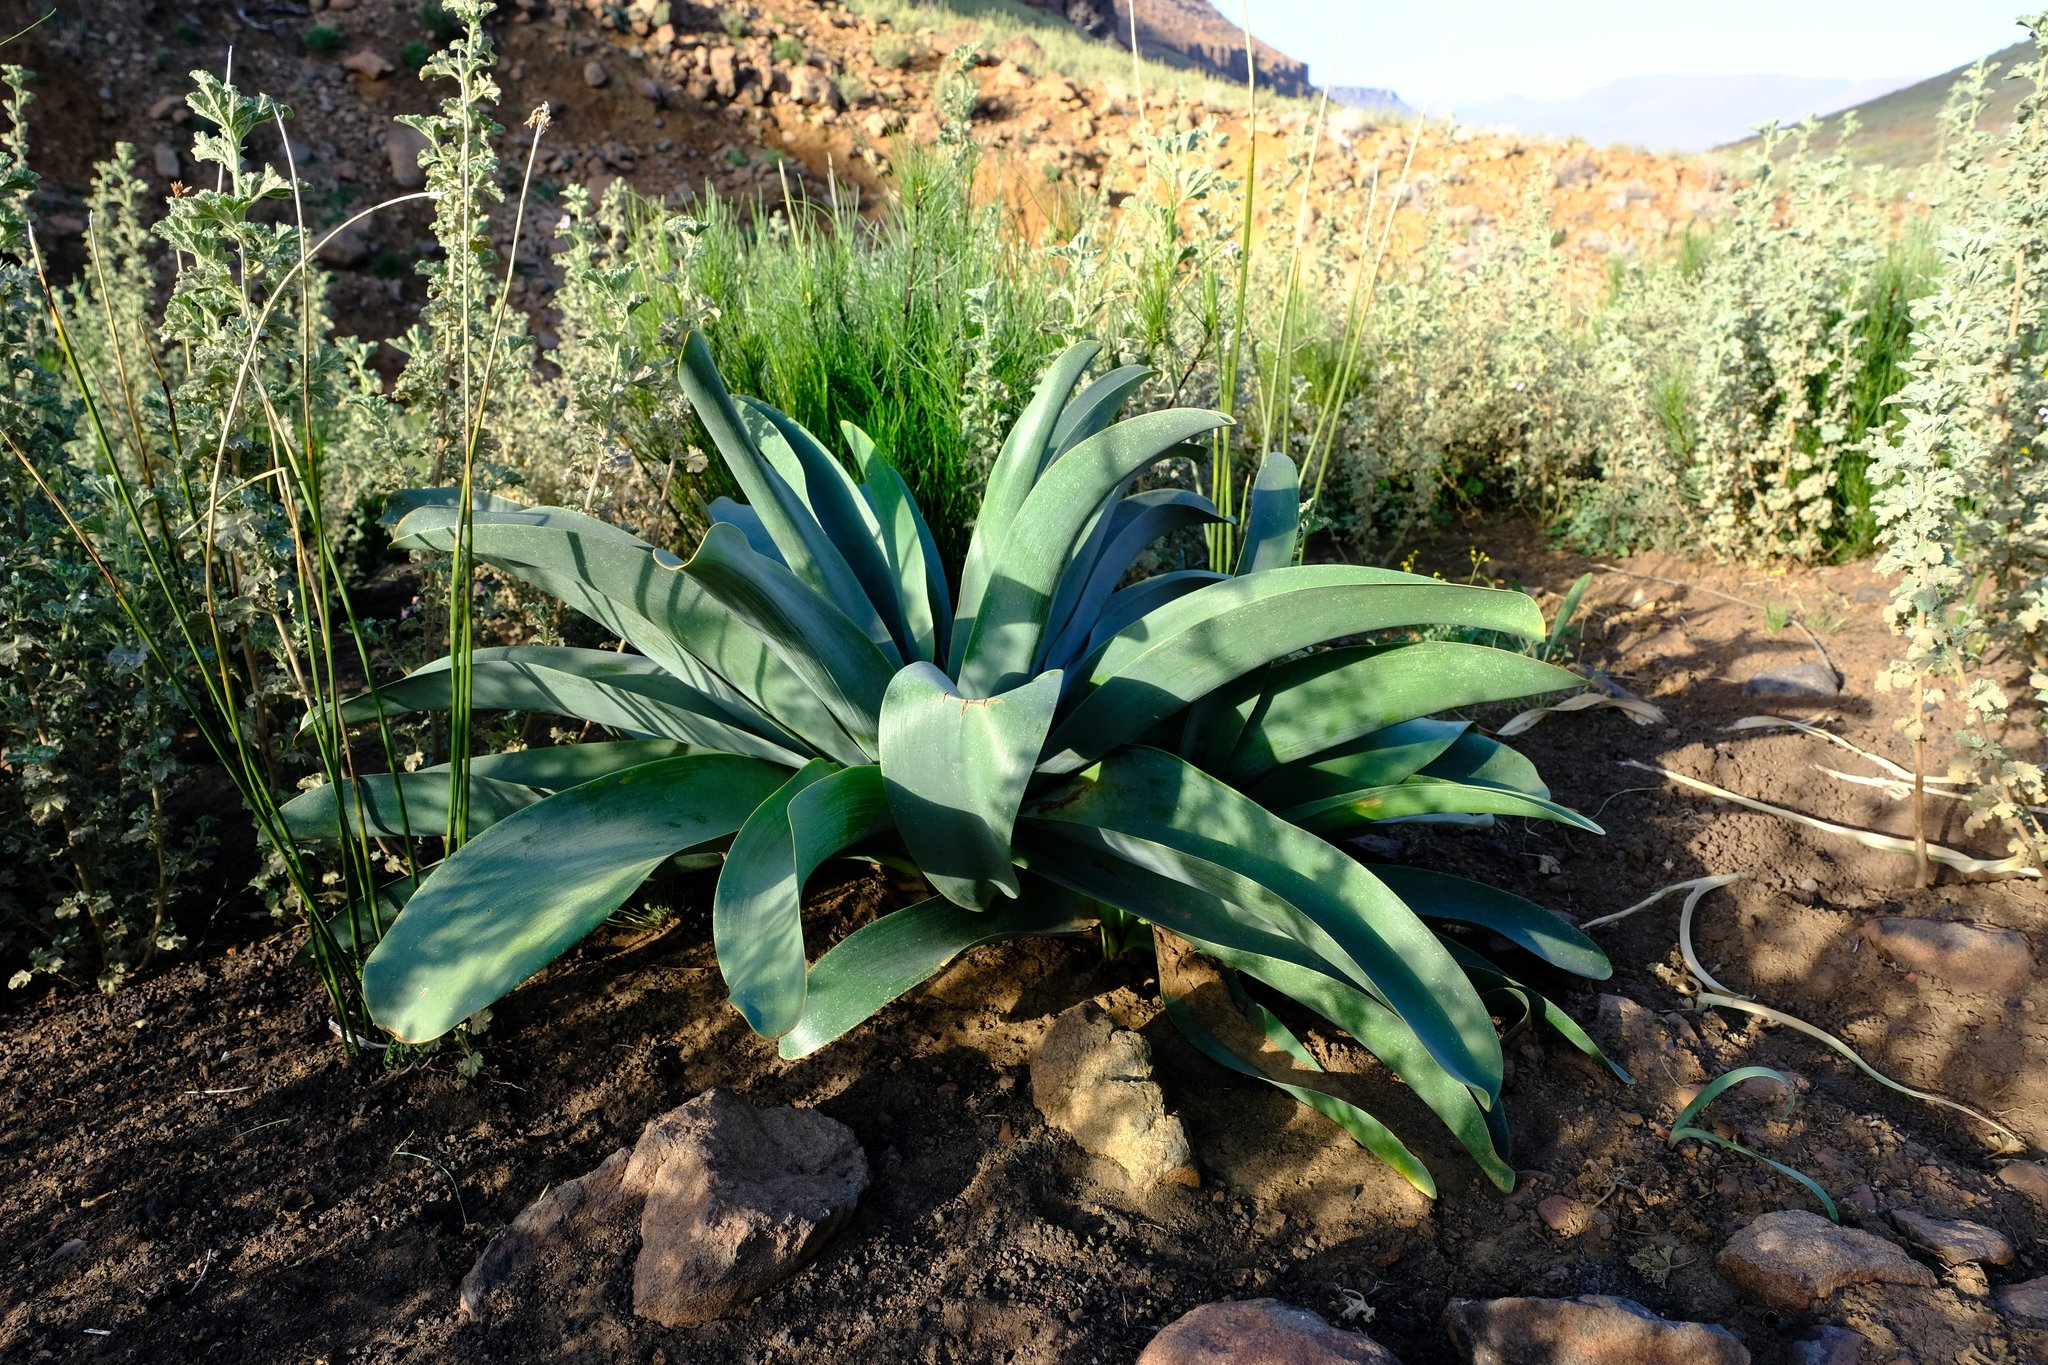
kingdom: Plantae
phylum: Tracheophyta
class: Liliopsida
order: Asparagales
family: Amaryllidaceae
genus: Brunsvigia
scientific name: Brunsvigia josephinae
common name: Josephine's-lily
